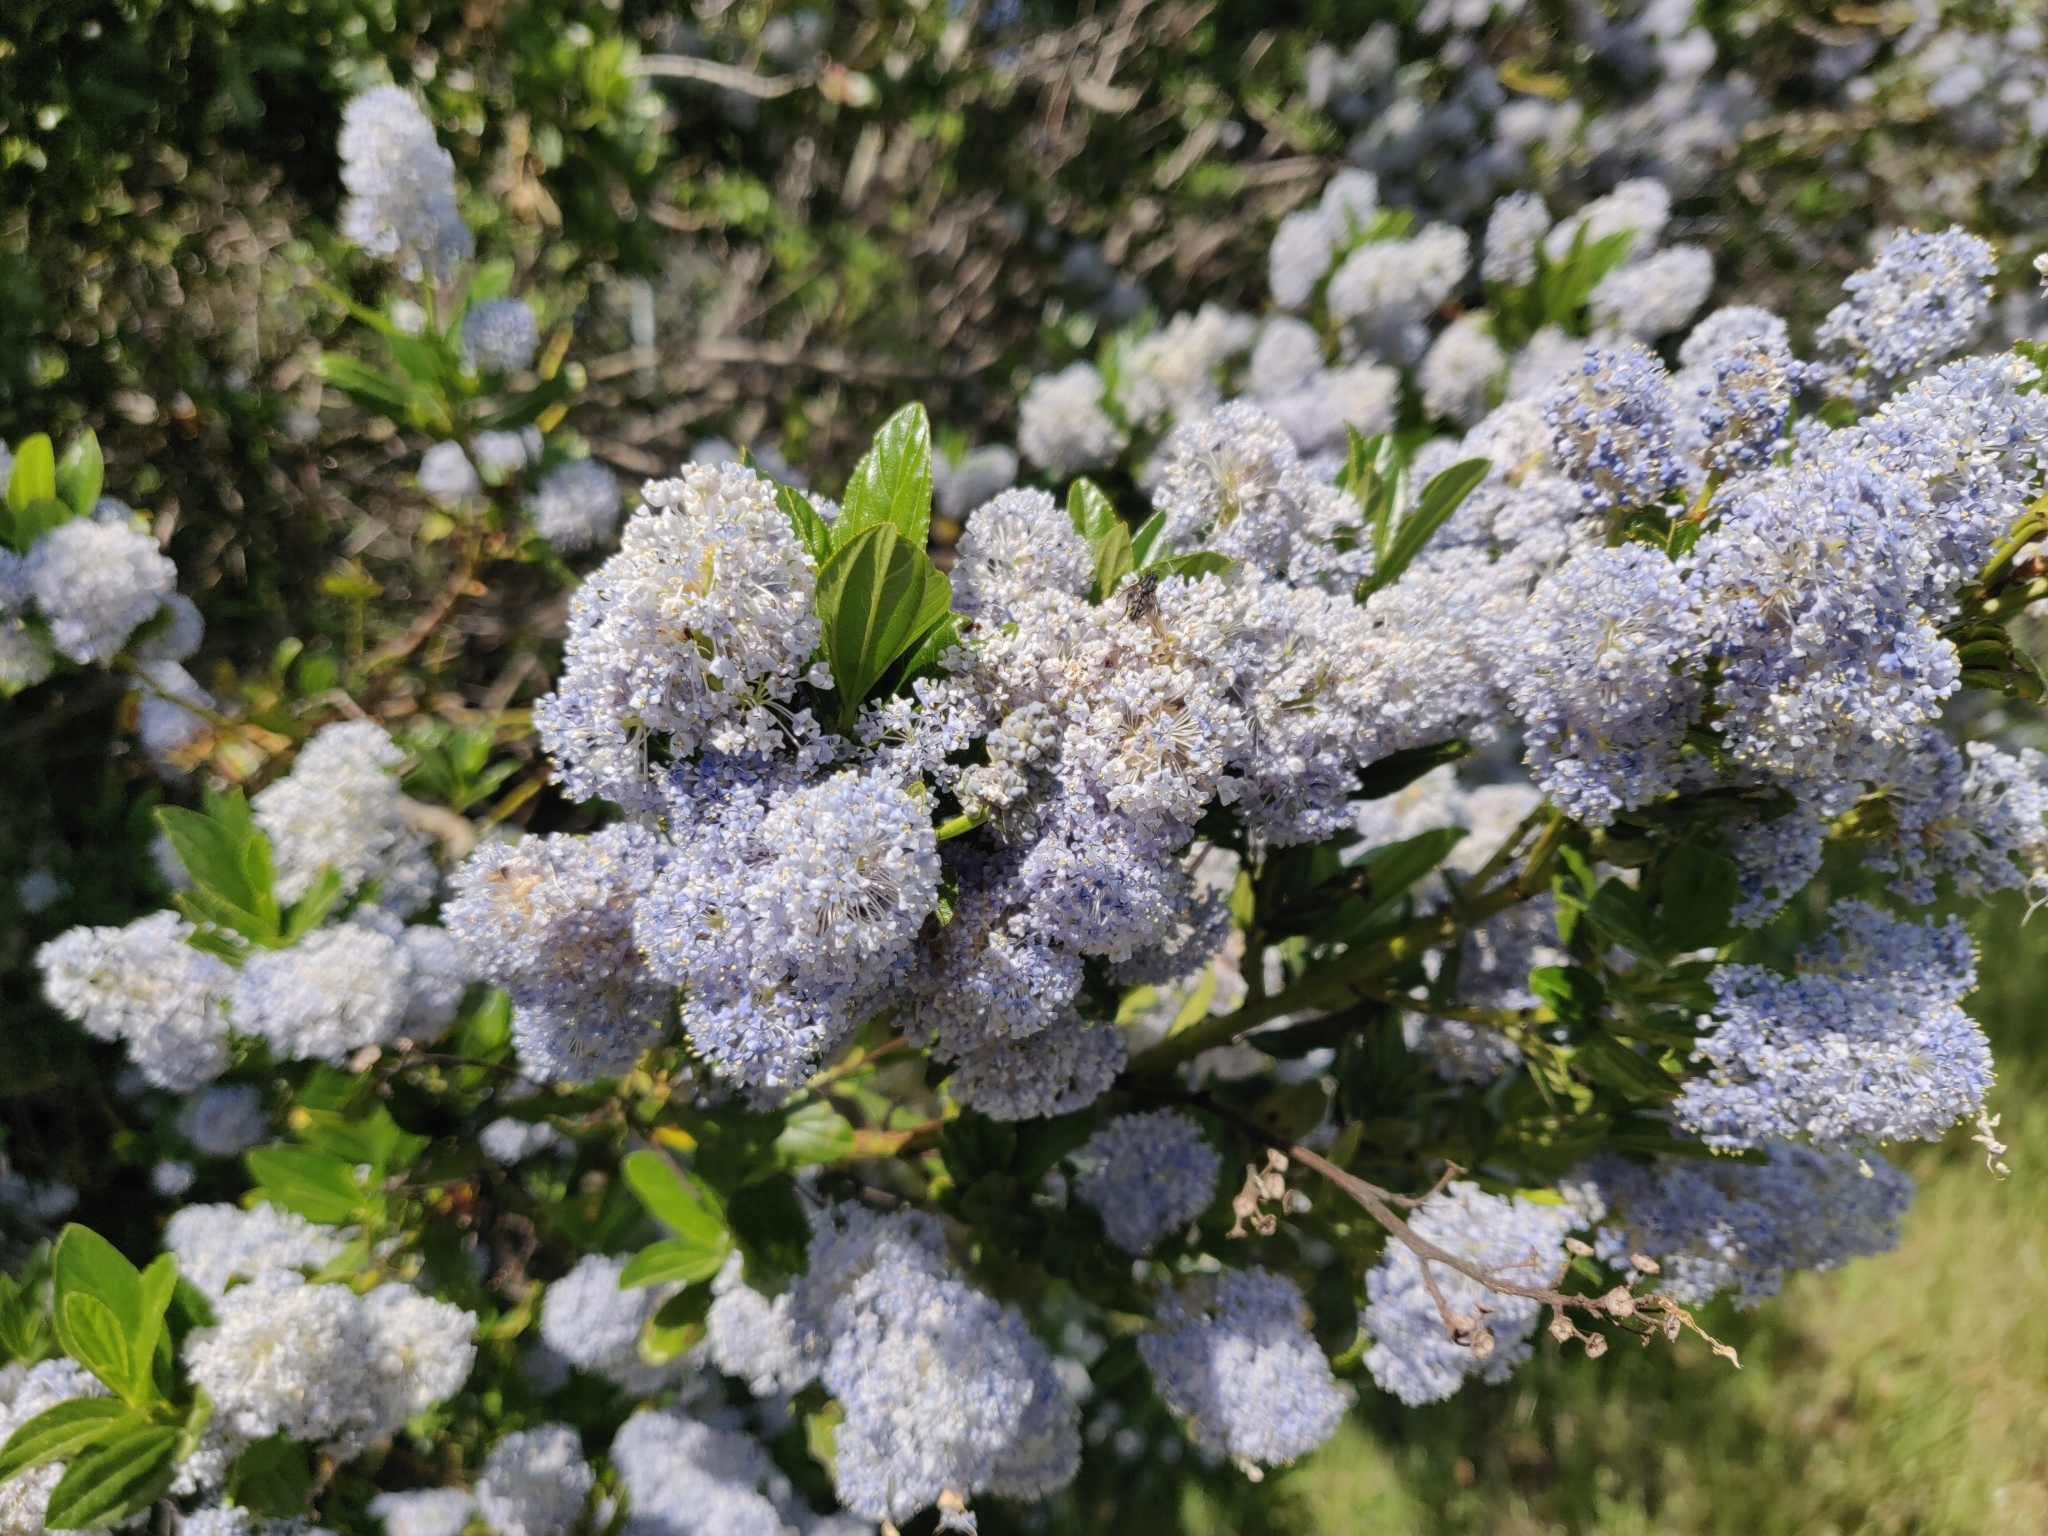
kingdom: Plantae
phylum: Tracheophyta
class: Magnoliopsida
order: Rosales
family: Rhamnaceae
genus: Ceanothus
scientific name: Ceanothus thyrsiflorus
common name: California-lilac
